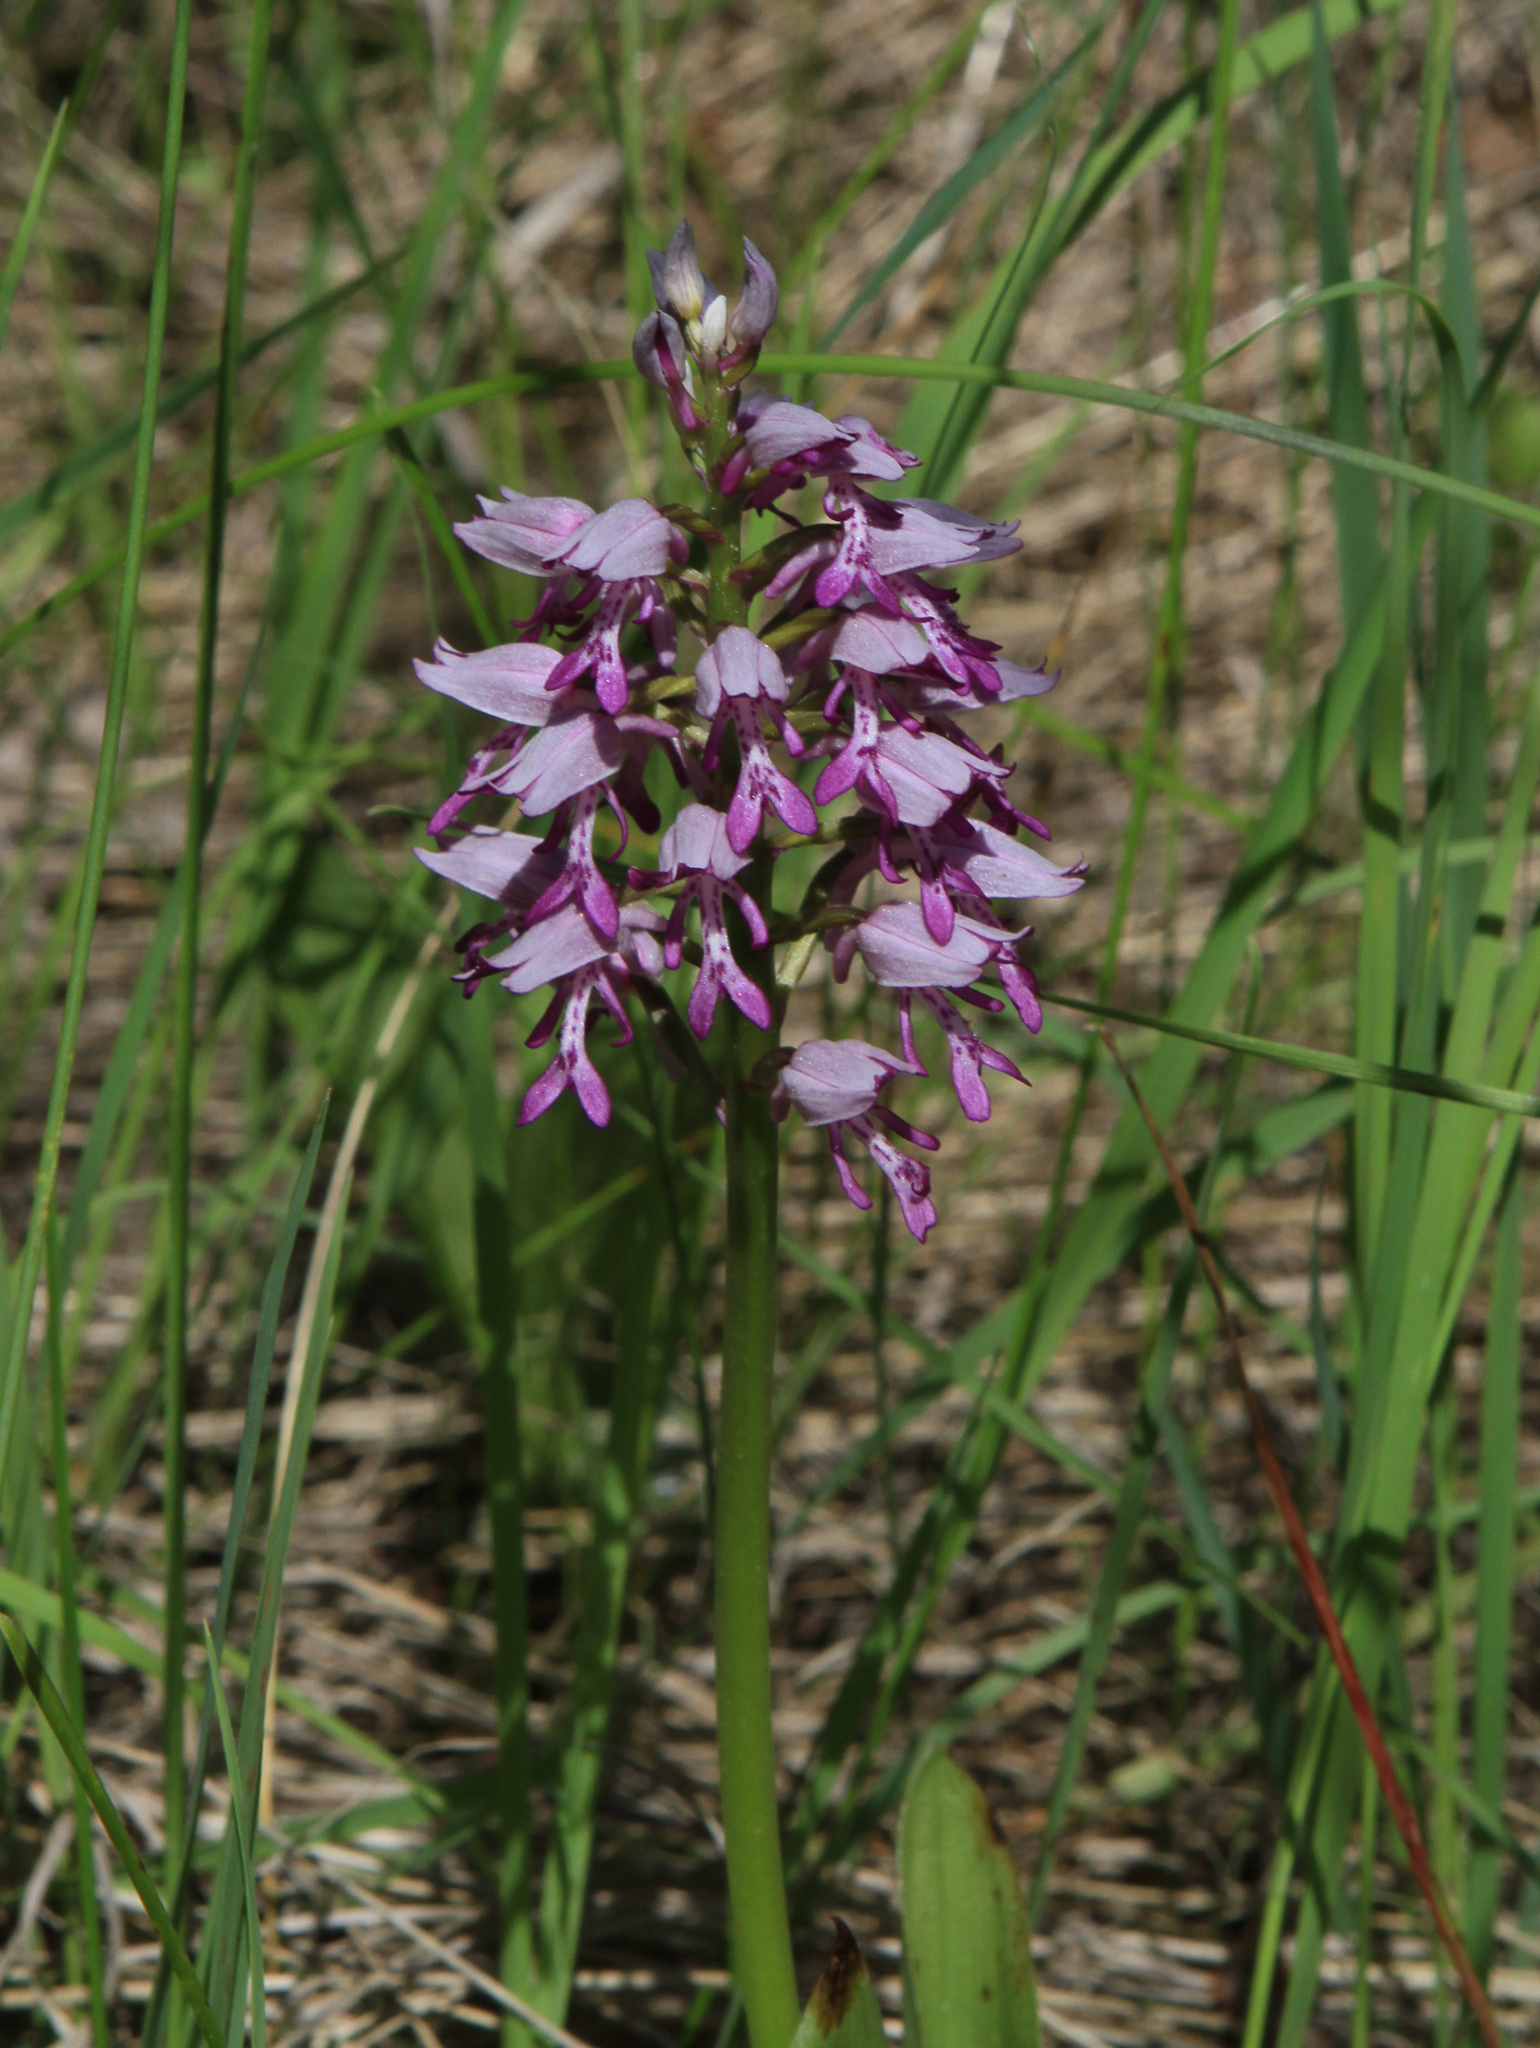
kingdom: Plantae
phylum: Tracheophyta
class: Liliopsida
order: Asparagales
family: Orchidaceae
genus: Orchis
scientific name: Orchis militaris
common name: Military orchid
